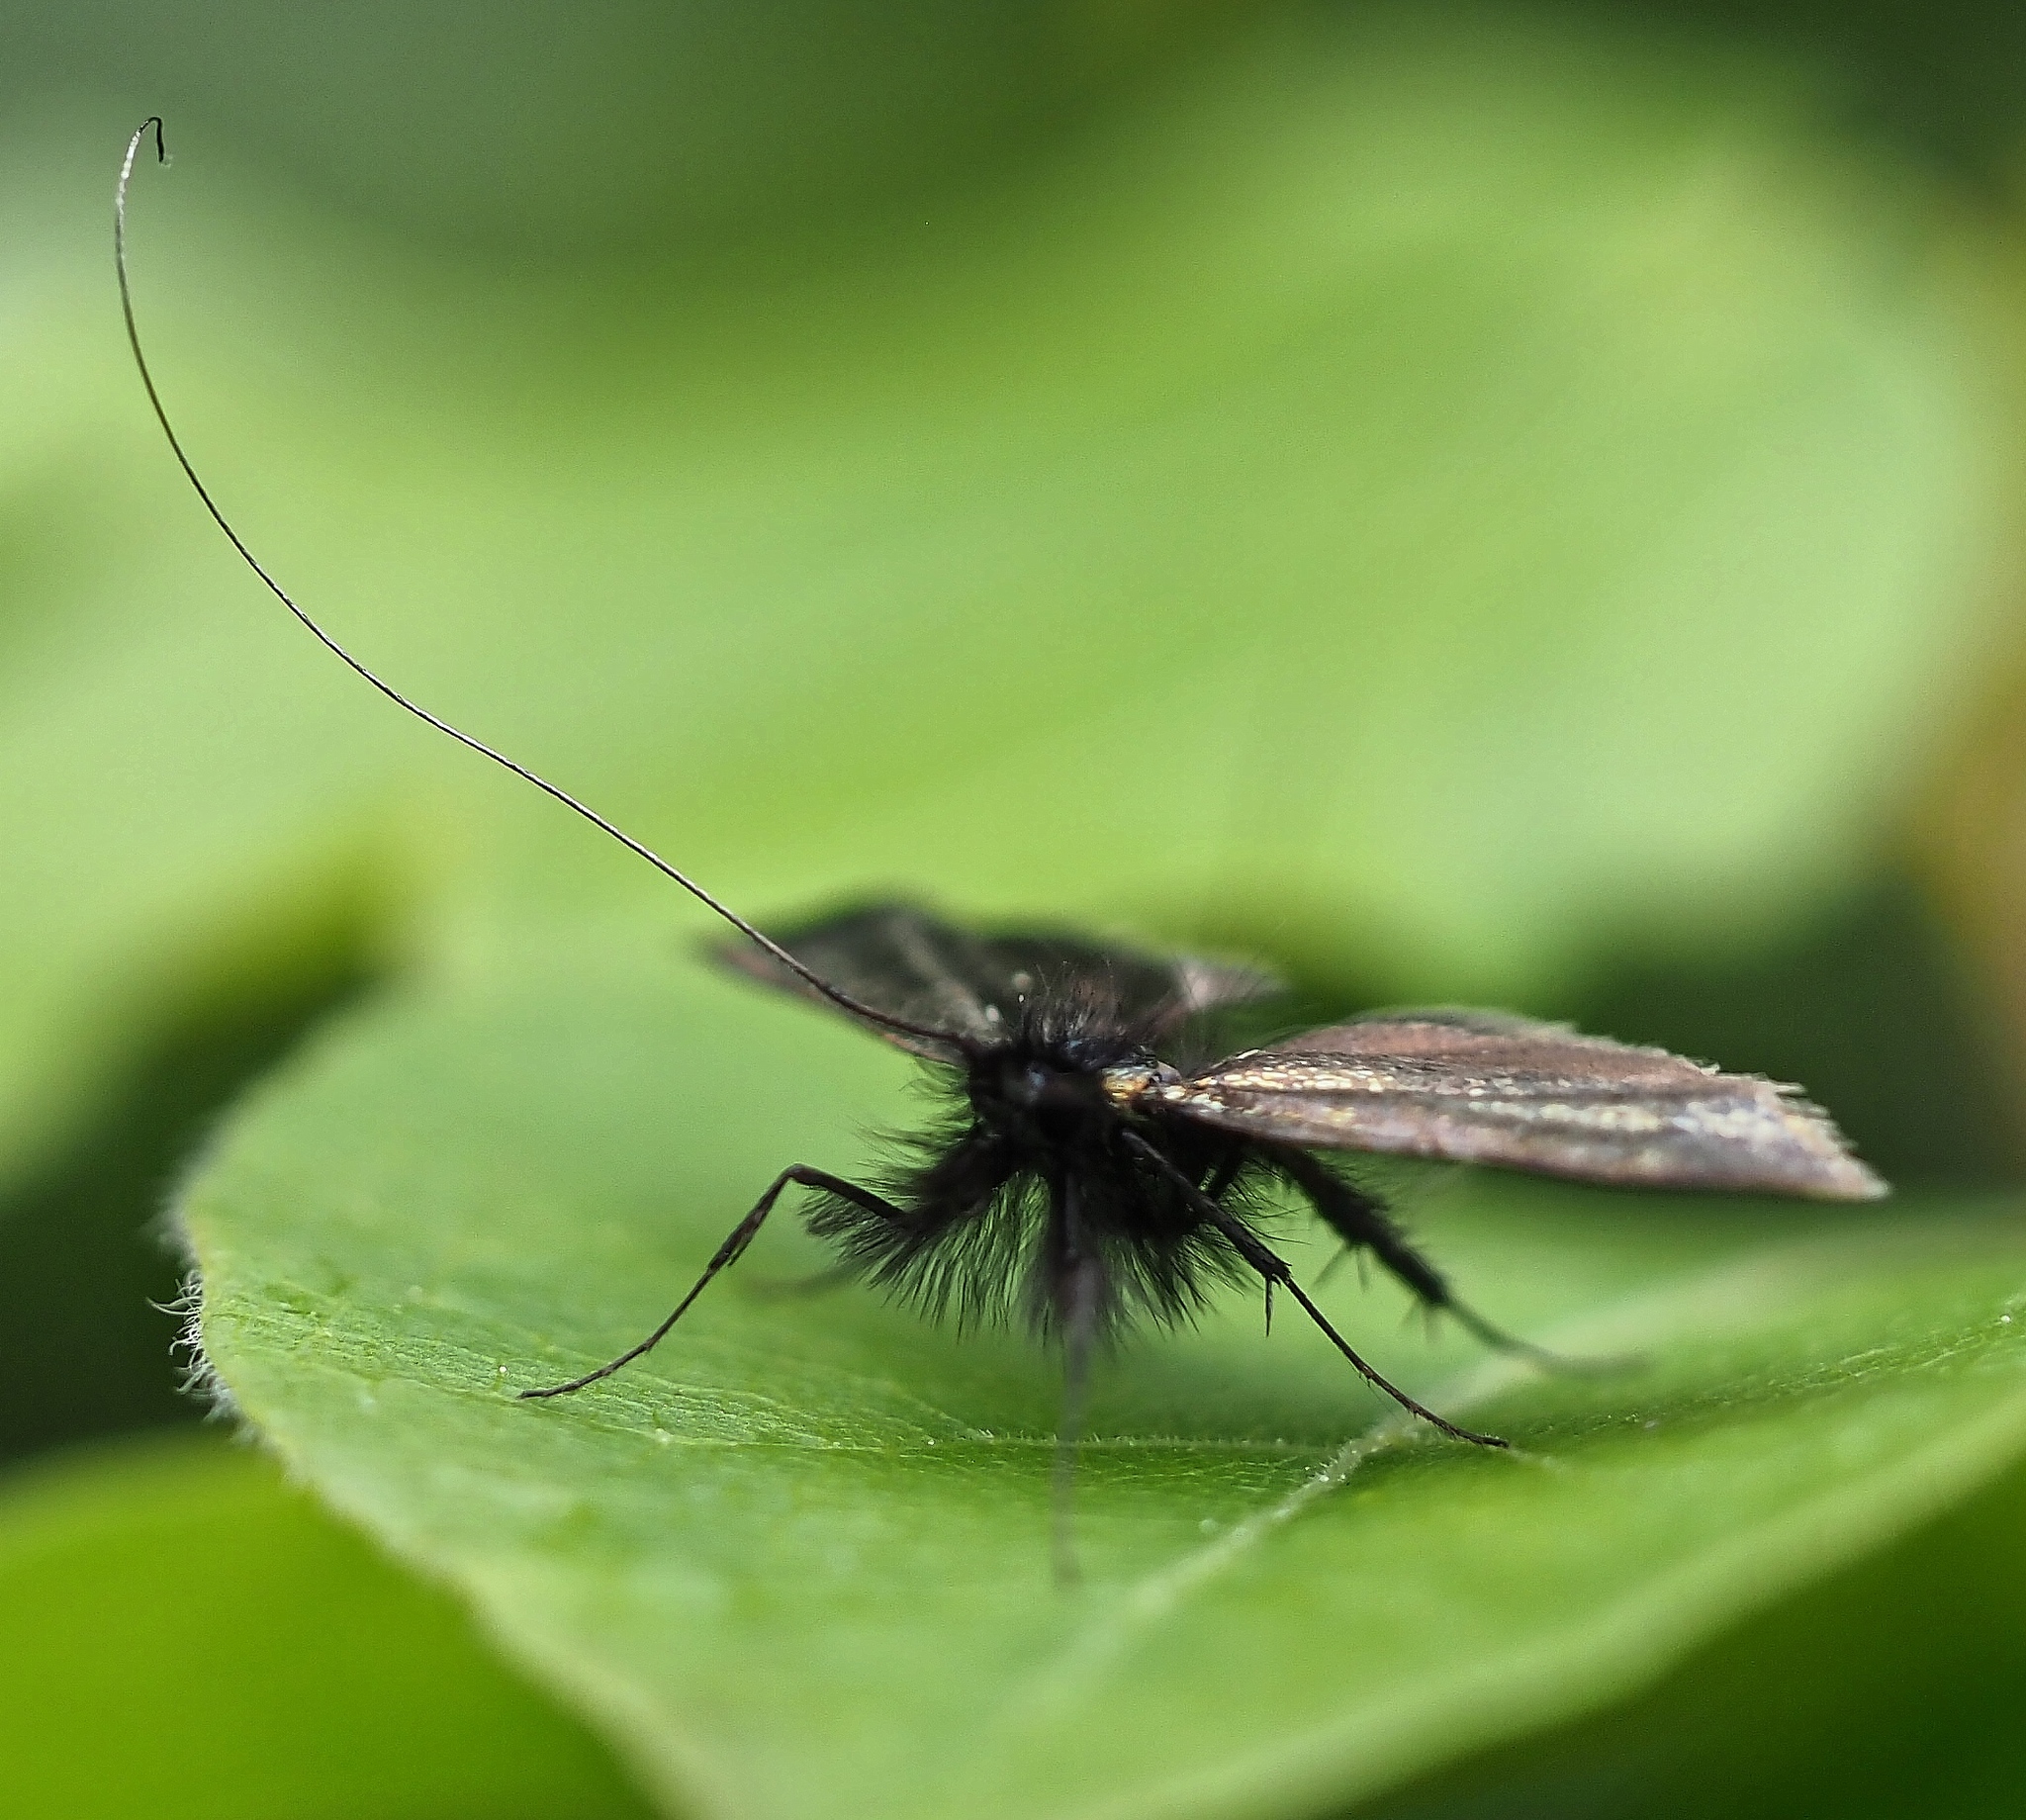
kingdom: Animalia
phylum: Arthropoda
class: Insecta
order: Lepidoptera
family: Adelidae
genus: Adela
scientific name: Adela viridella
